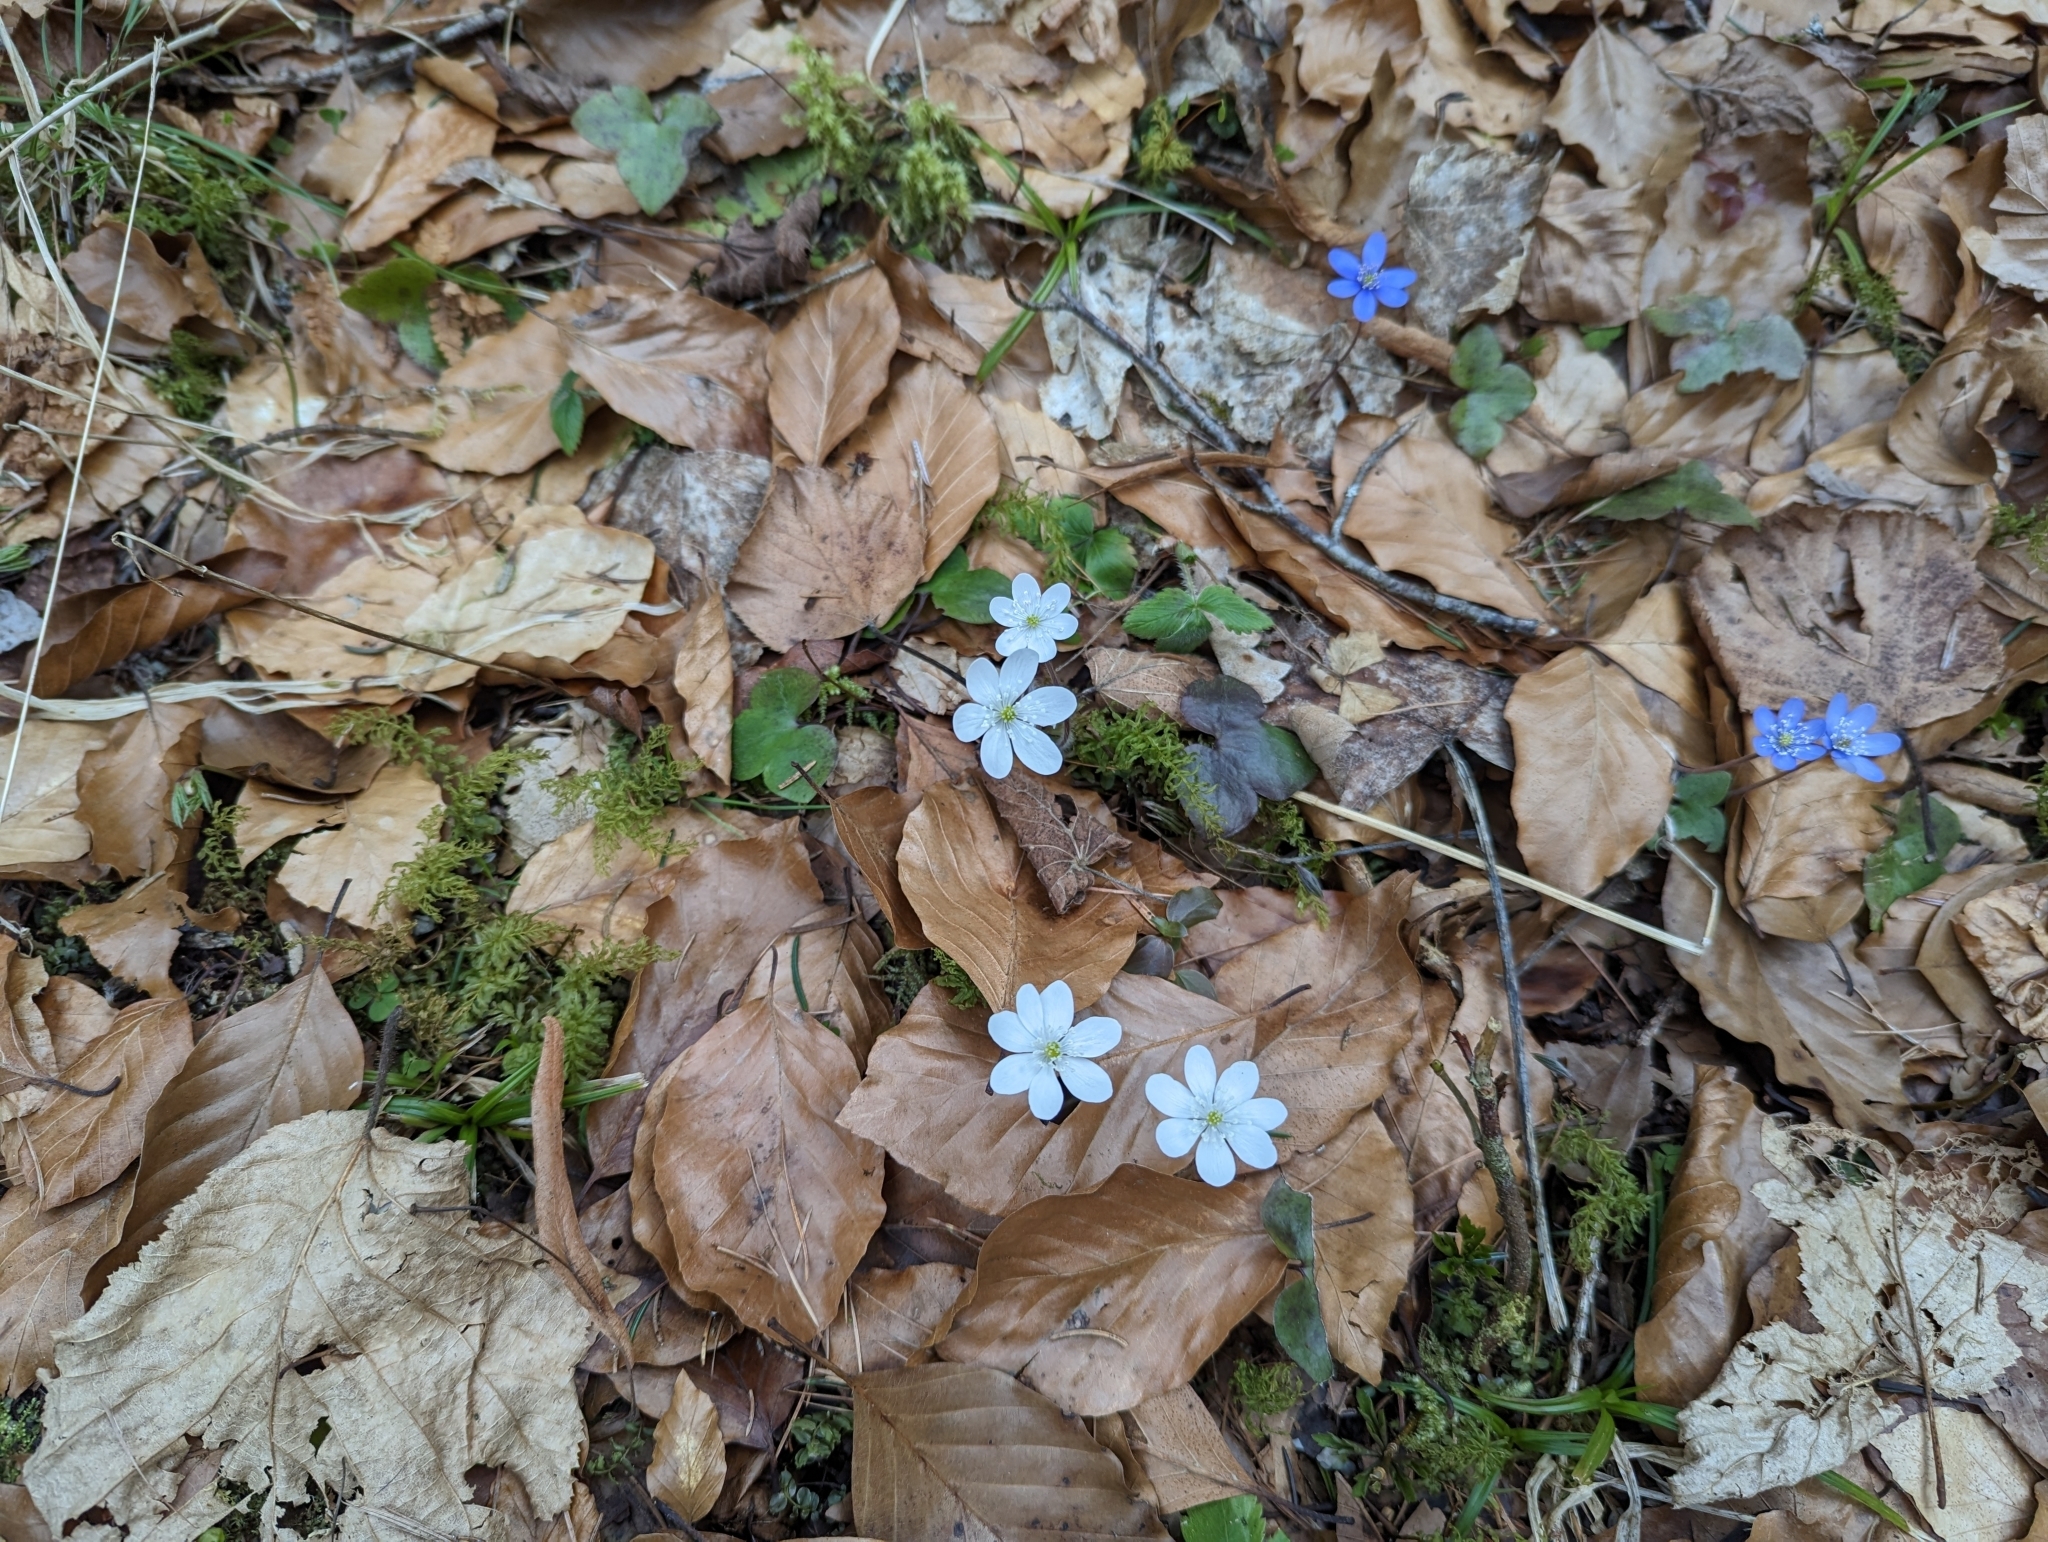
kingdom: Plantae
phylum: Tracheophyta
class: Magnoliopsida
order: Ranunculales
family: Ranunculaceae
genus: Hepatica
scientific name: Hepatica nobilis
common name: Liverleaf
